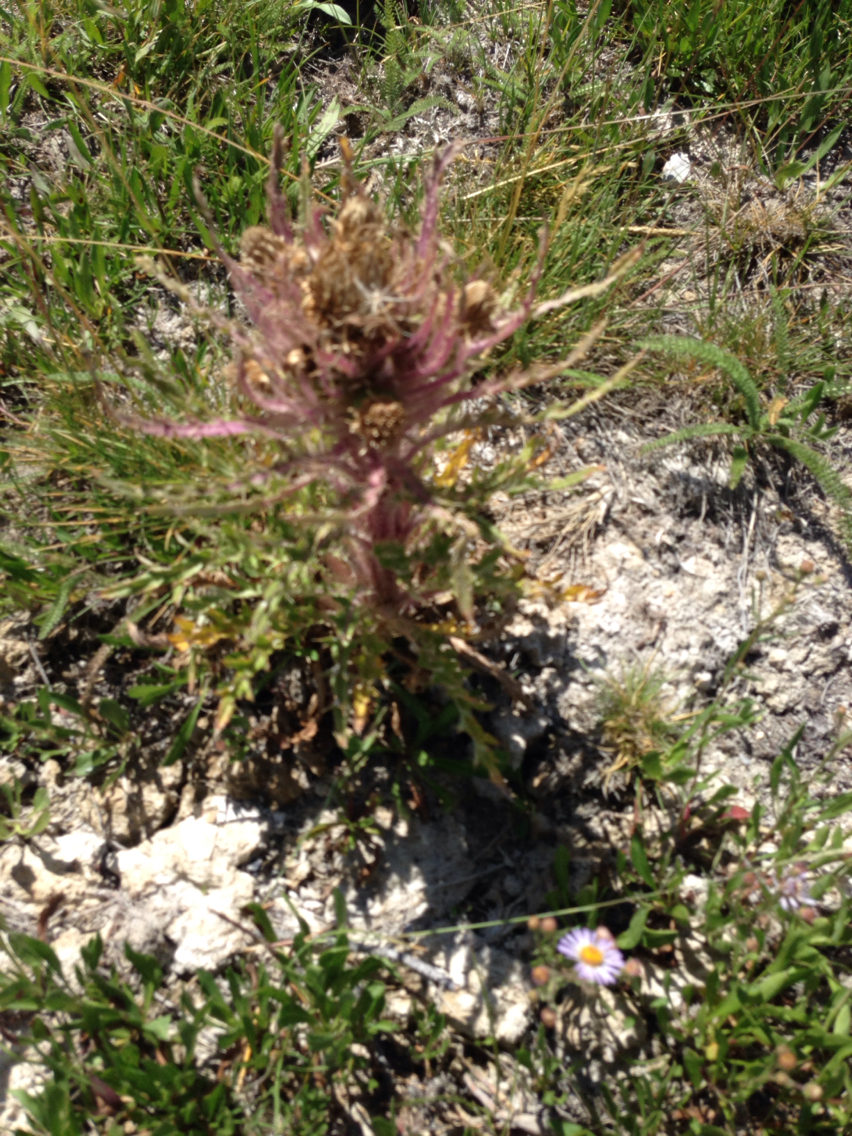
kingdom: Plantae
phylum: Tracheophyta
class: Magnoliopsida
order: Asterales
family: Asteraceae
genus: Cirsium
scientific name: Cirsium scariosum
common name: Meadow thistle
